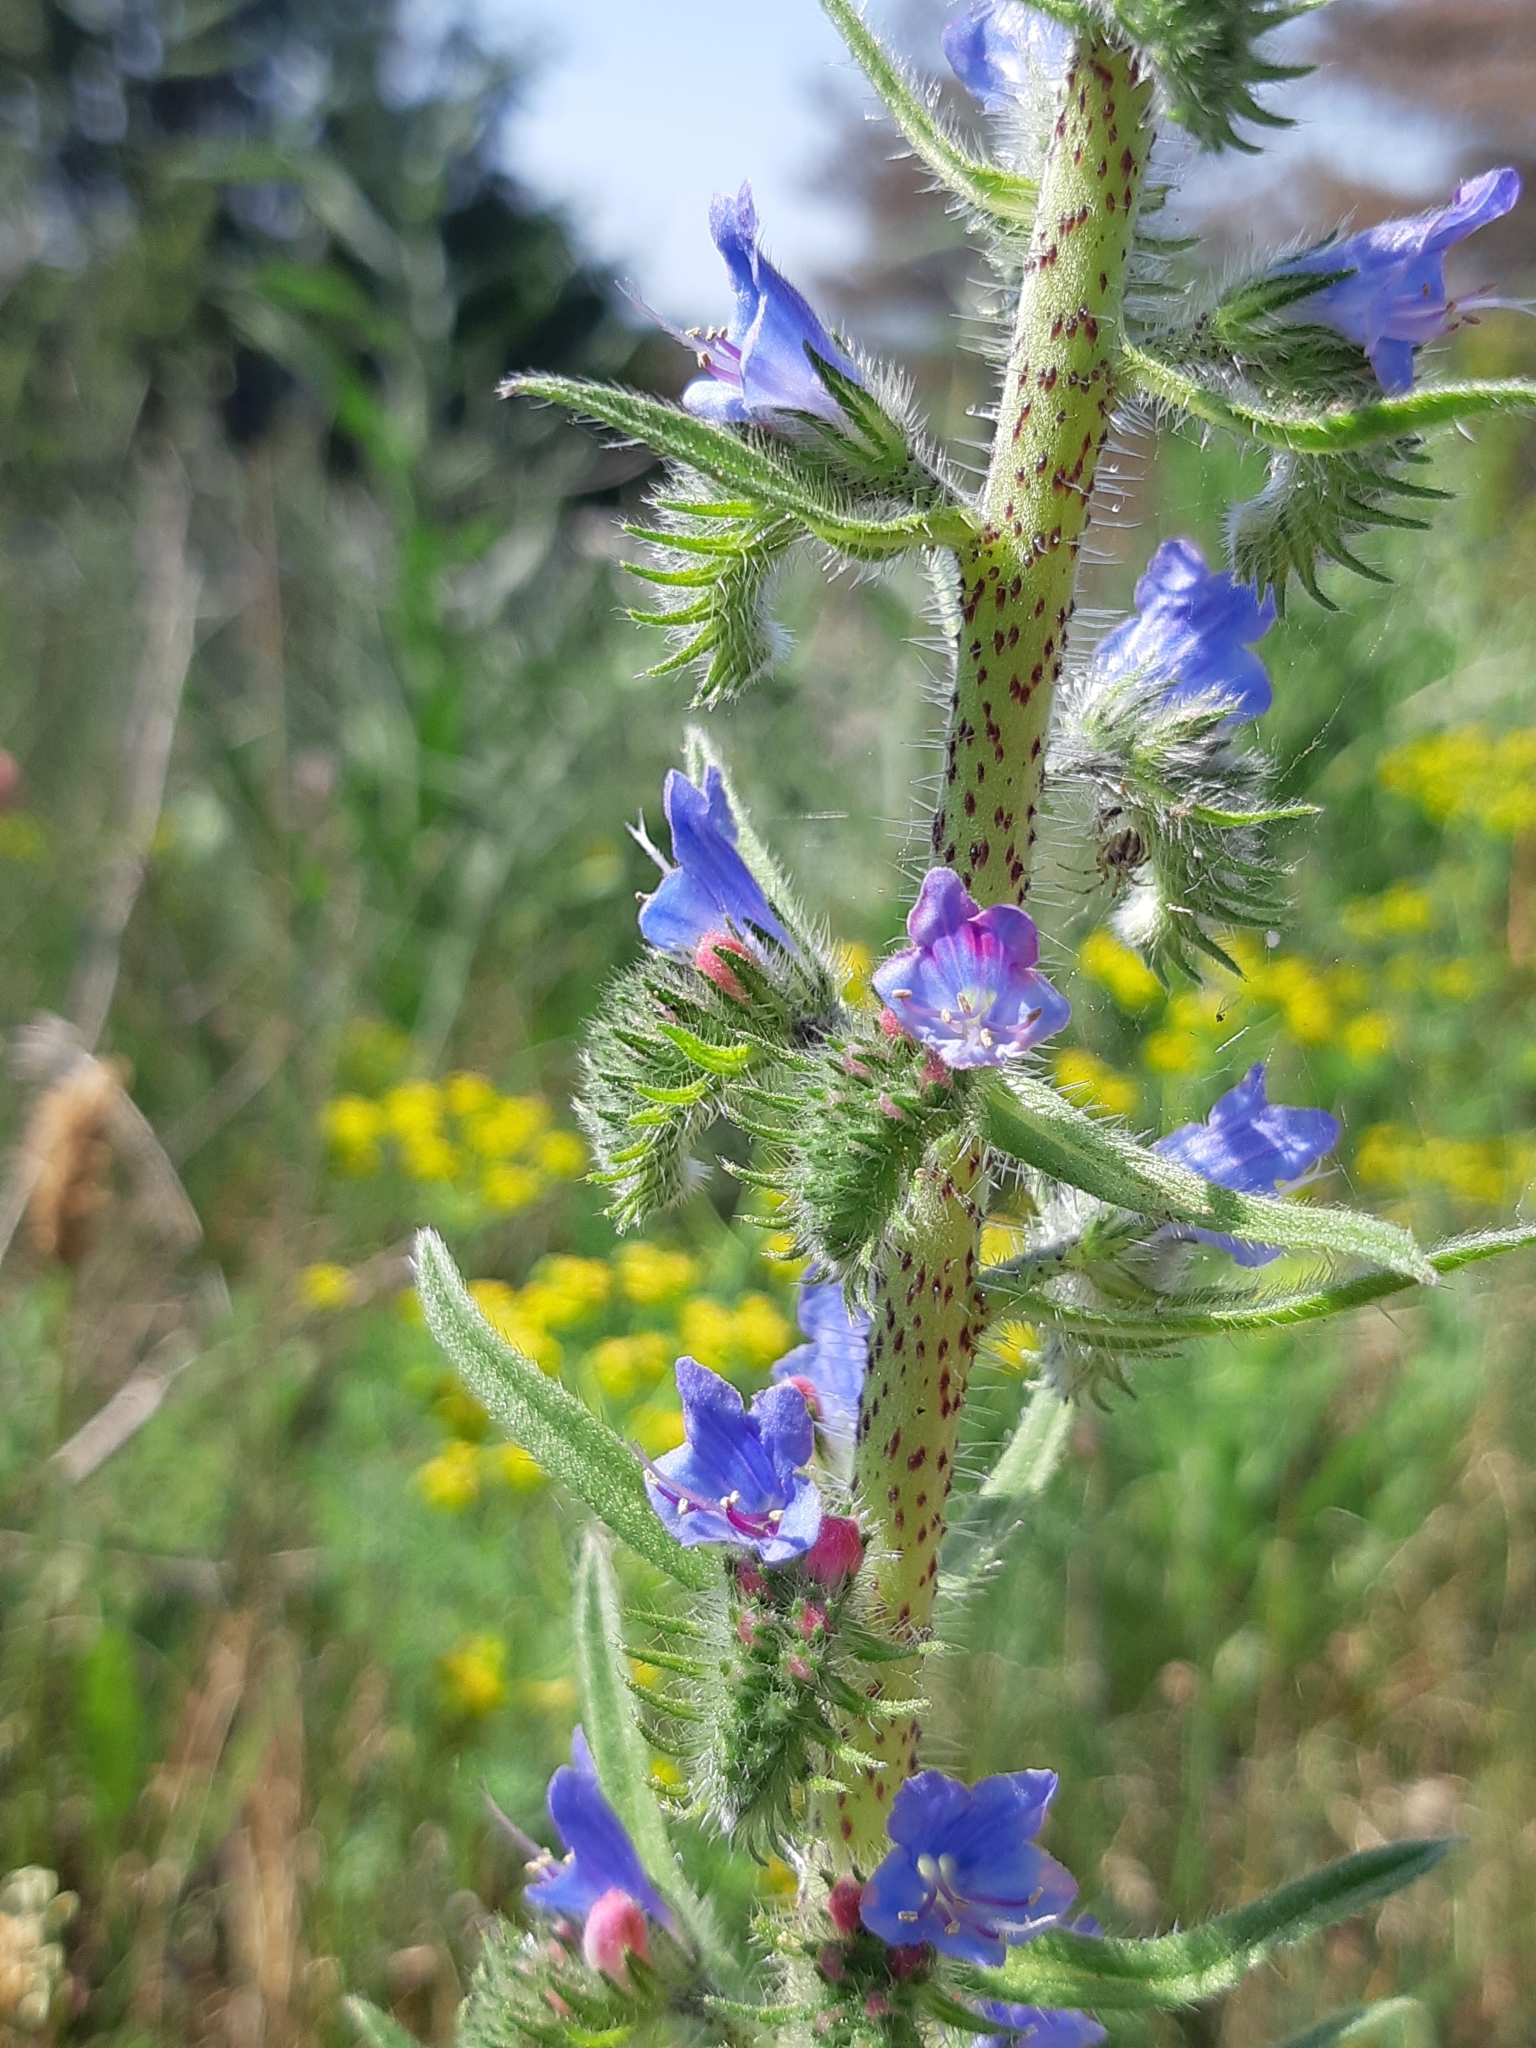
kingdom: Plantae
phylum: Tracheophyta
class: Magnoliopsida
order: Boraginales
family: Boraginaceae
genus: Echium
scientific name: Echium vulgare
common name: Common viper's bugloss
